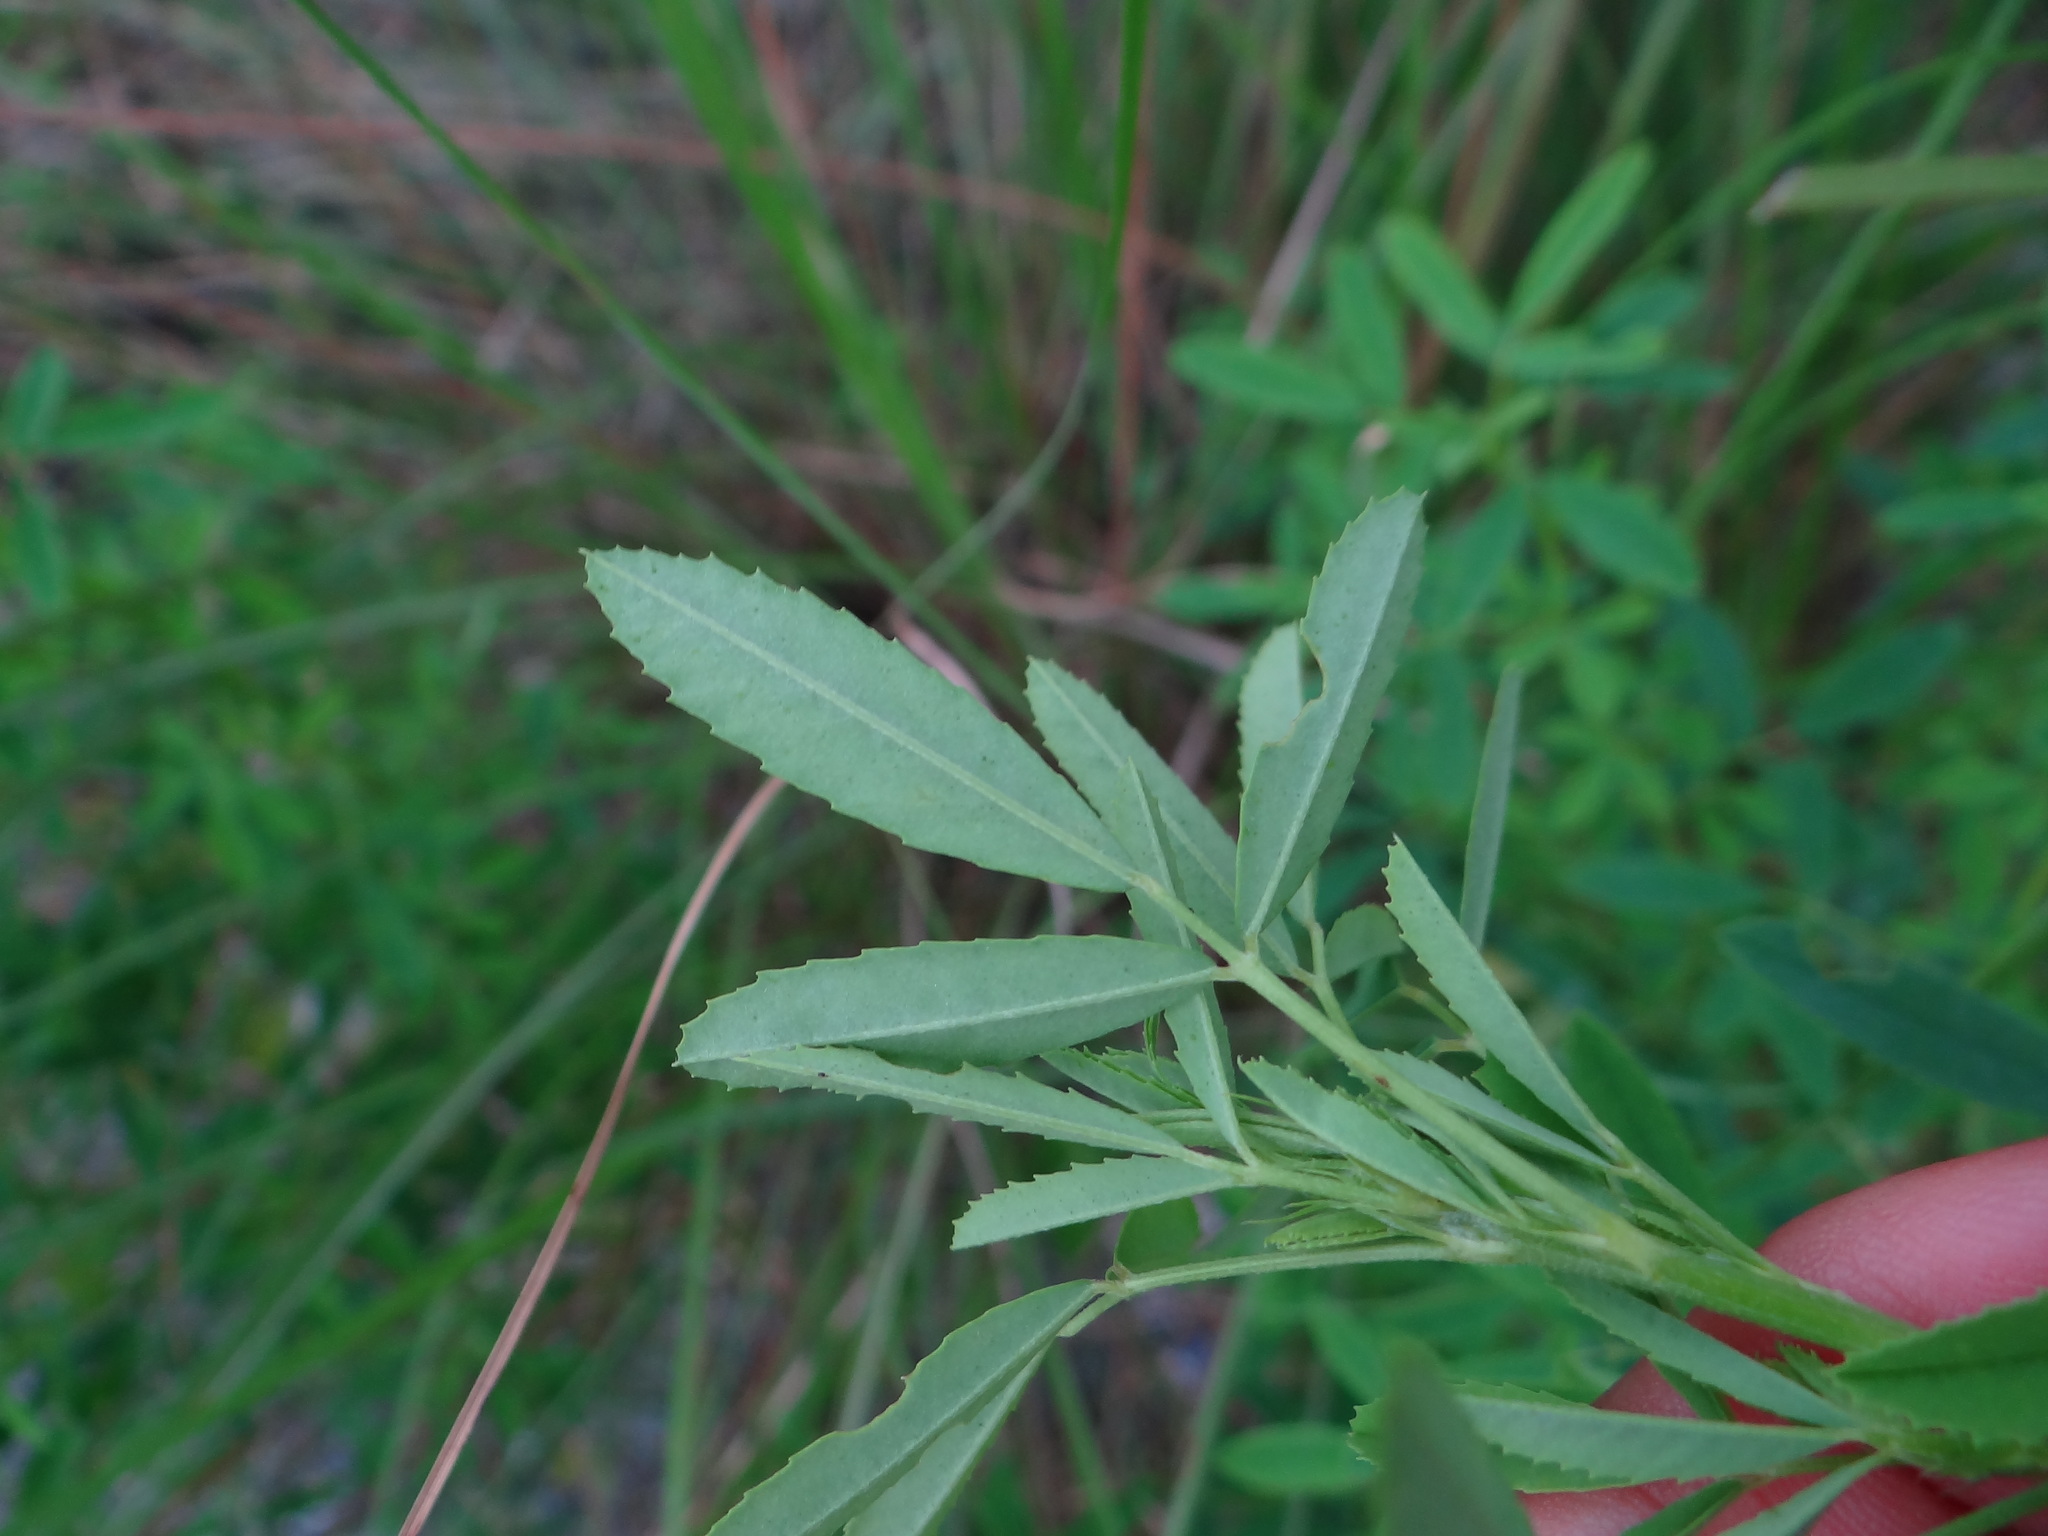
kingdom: Plantae
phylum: Tracheophyta
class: Magnoliopsida
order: Fabales
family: Fabaceae
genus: Melilotus
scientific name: Melilotus suaveolens
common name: Daghestan sweet-clover
